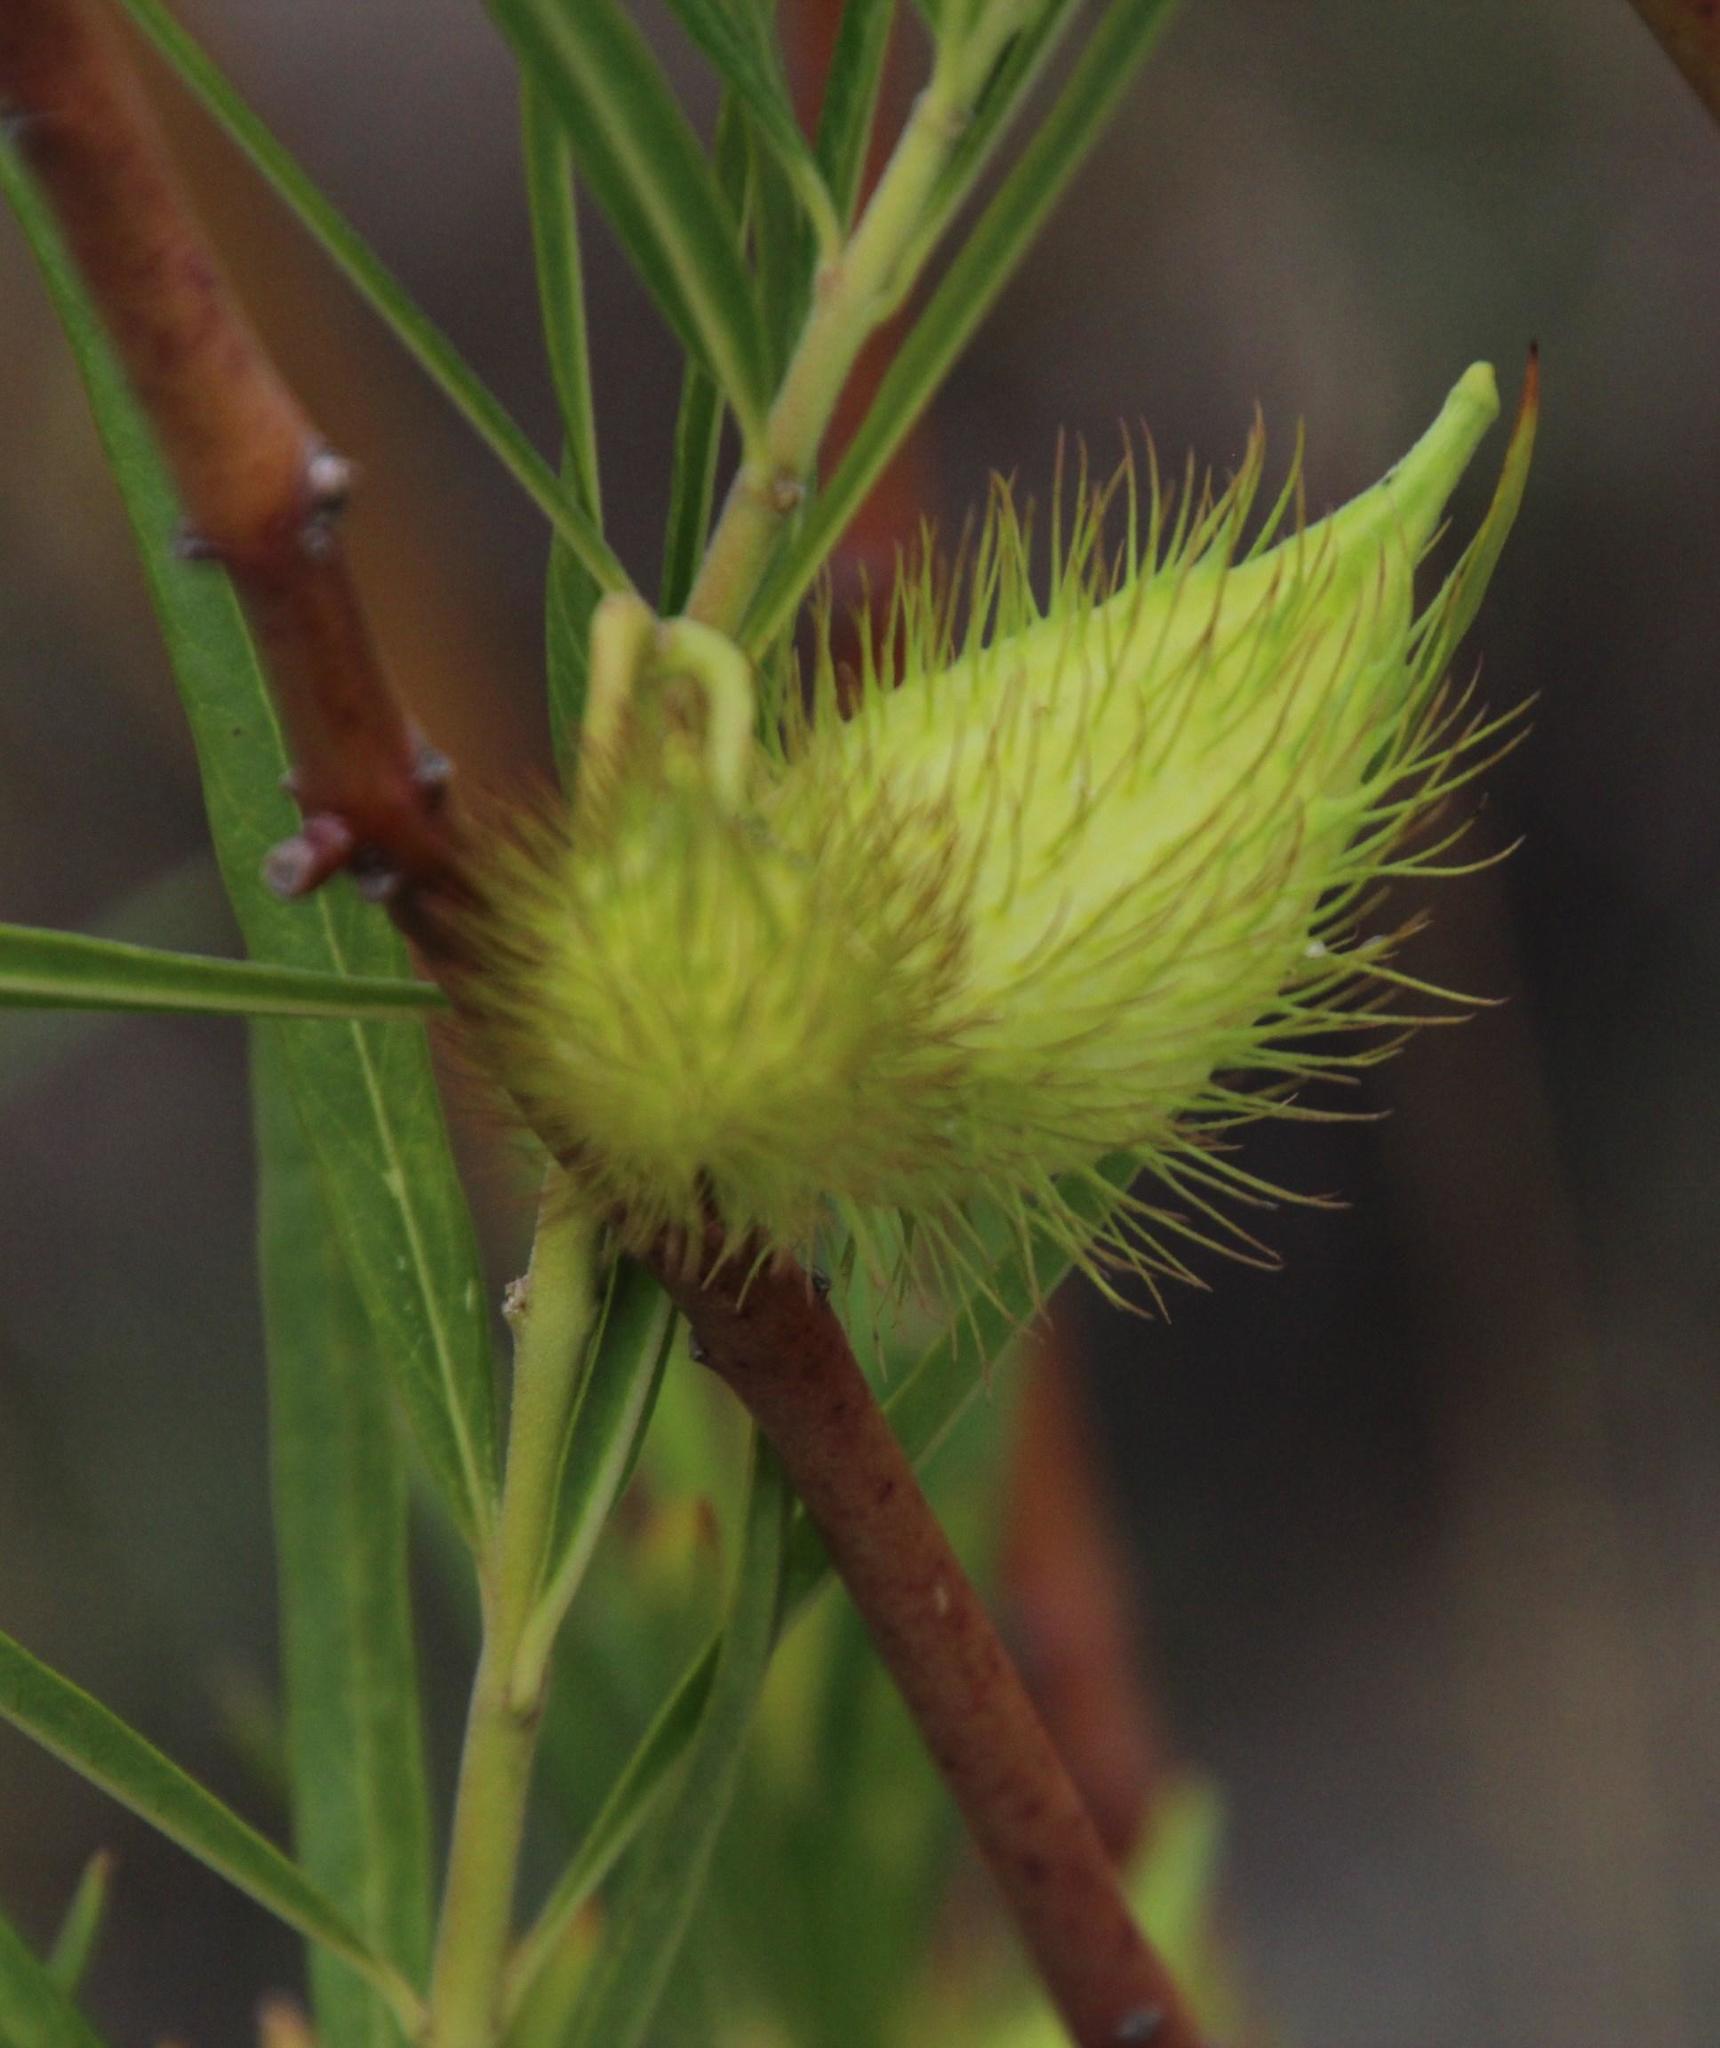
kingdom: Plantae
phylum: Tracheophyta
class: Magnoliopsida
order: Gentianales
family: Apocynaceae
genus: Gomphocarpus
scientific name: Gomphocarpus fruticosus
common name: Milkweed
